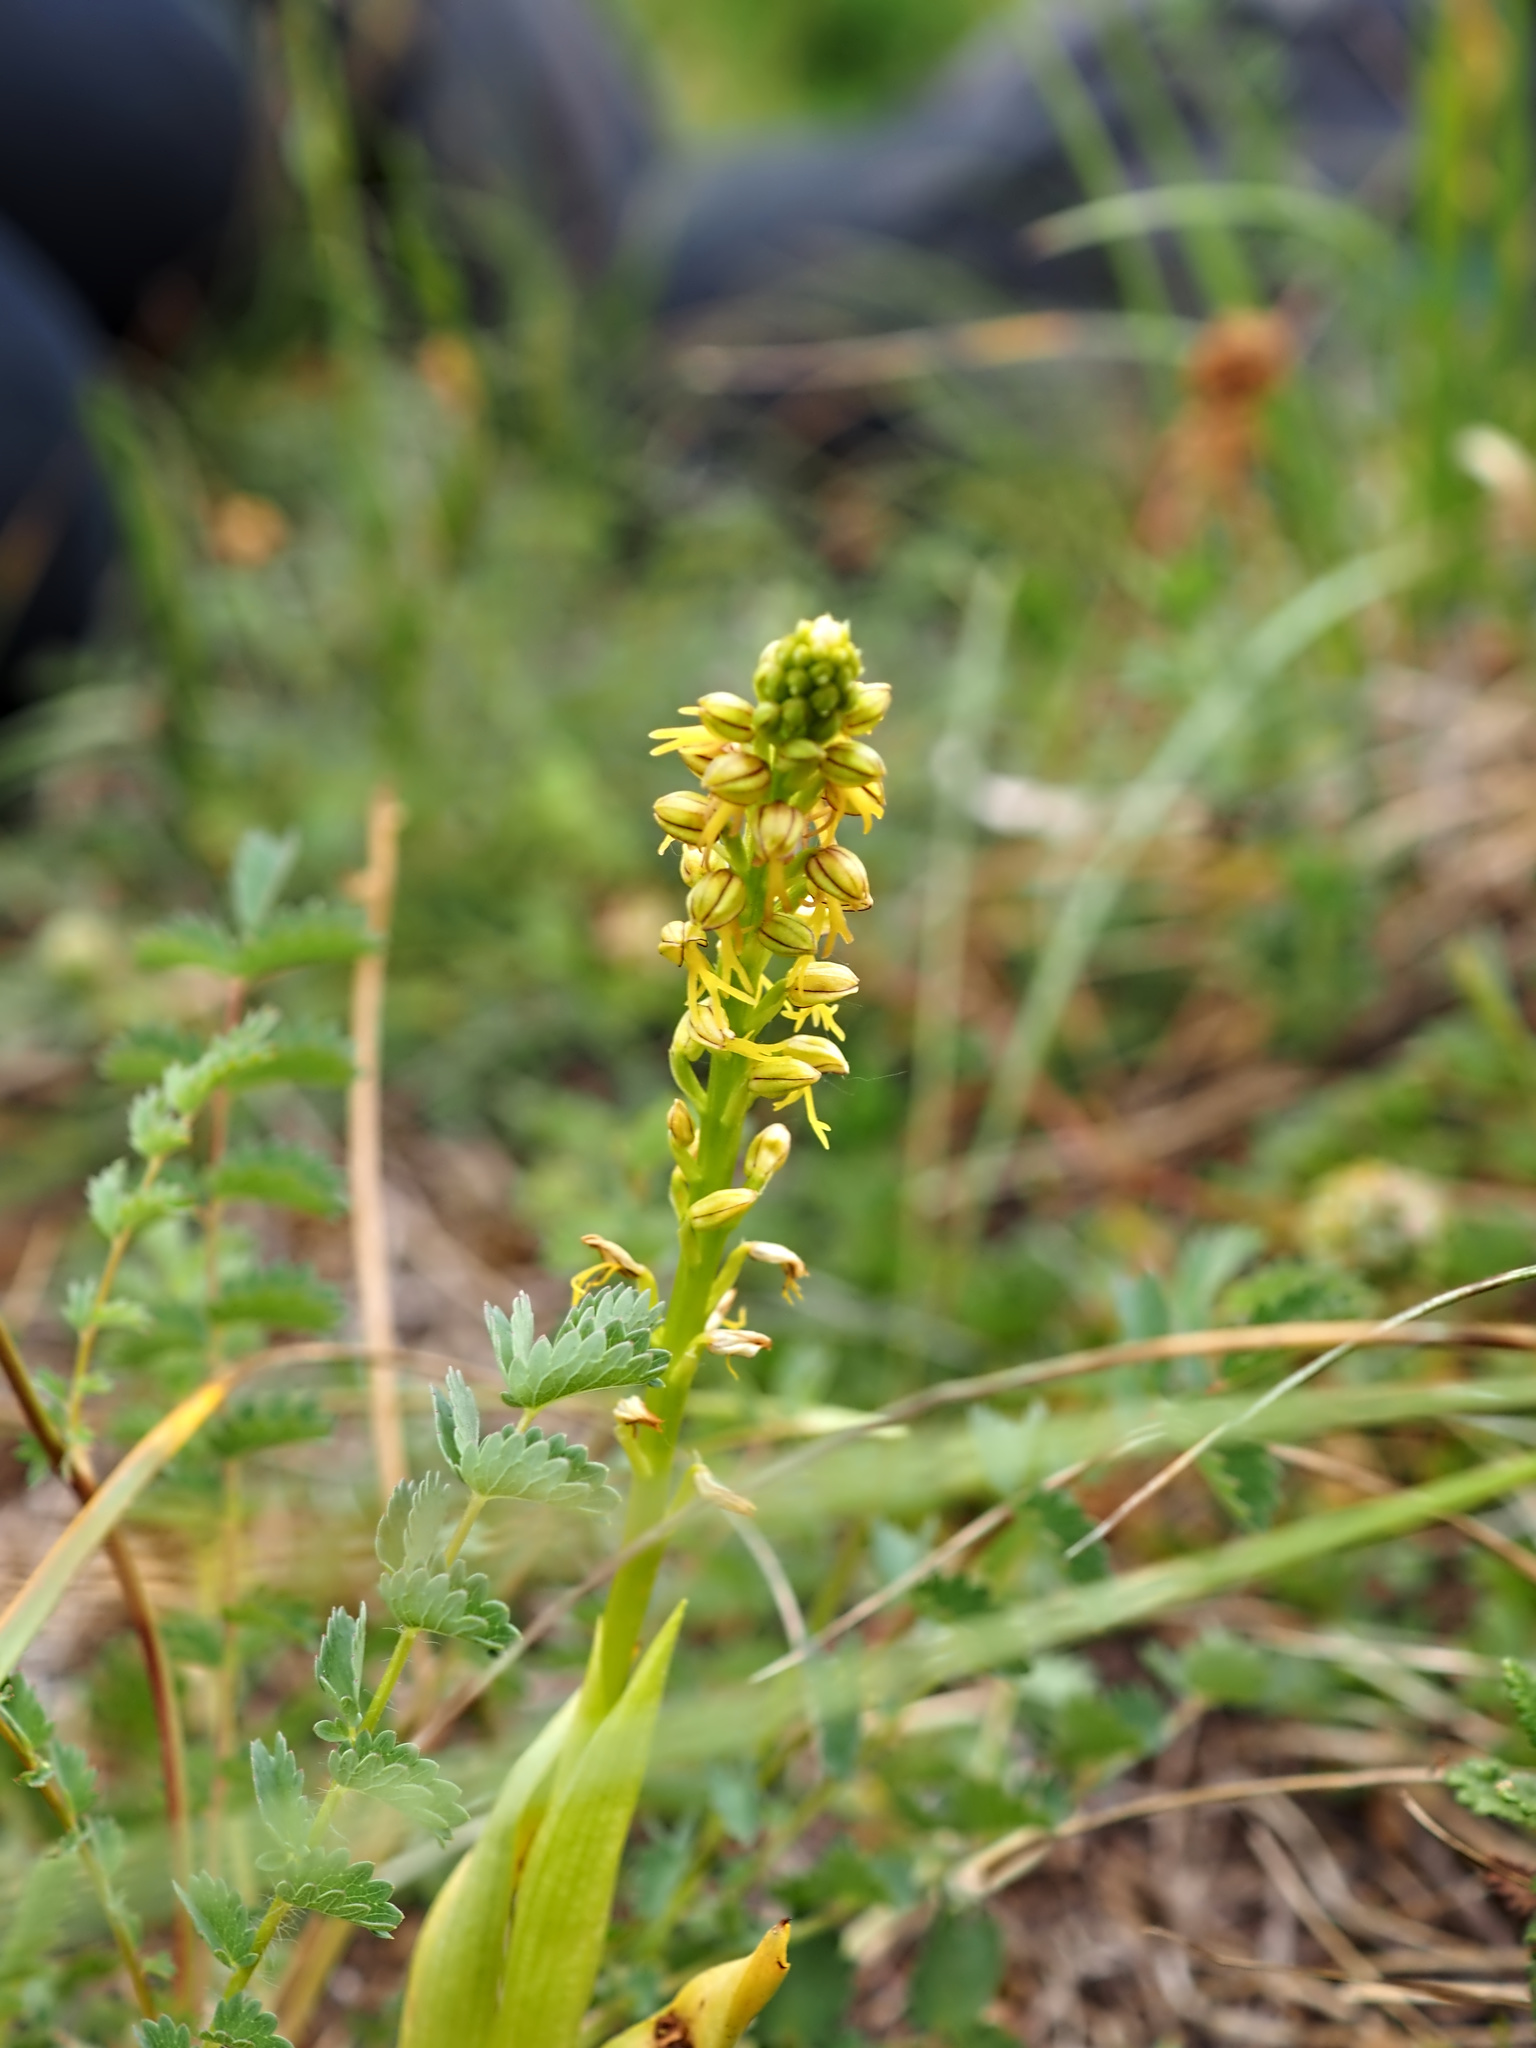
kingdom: Plantae
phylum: Tracheophyta
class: Liliopsida
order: Asparagales
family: Orchidaceae
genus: Orchis
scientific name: Orchis anthropophora
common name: Man orchid
